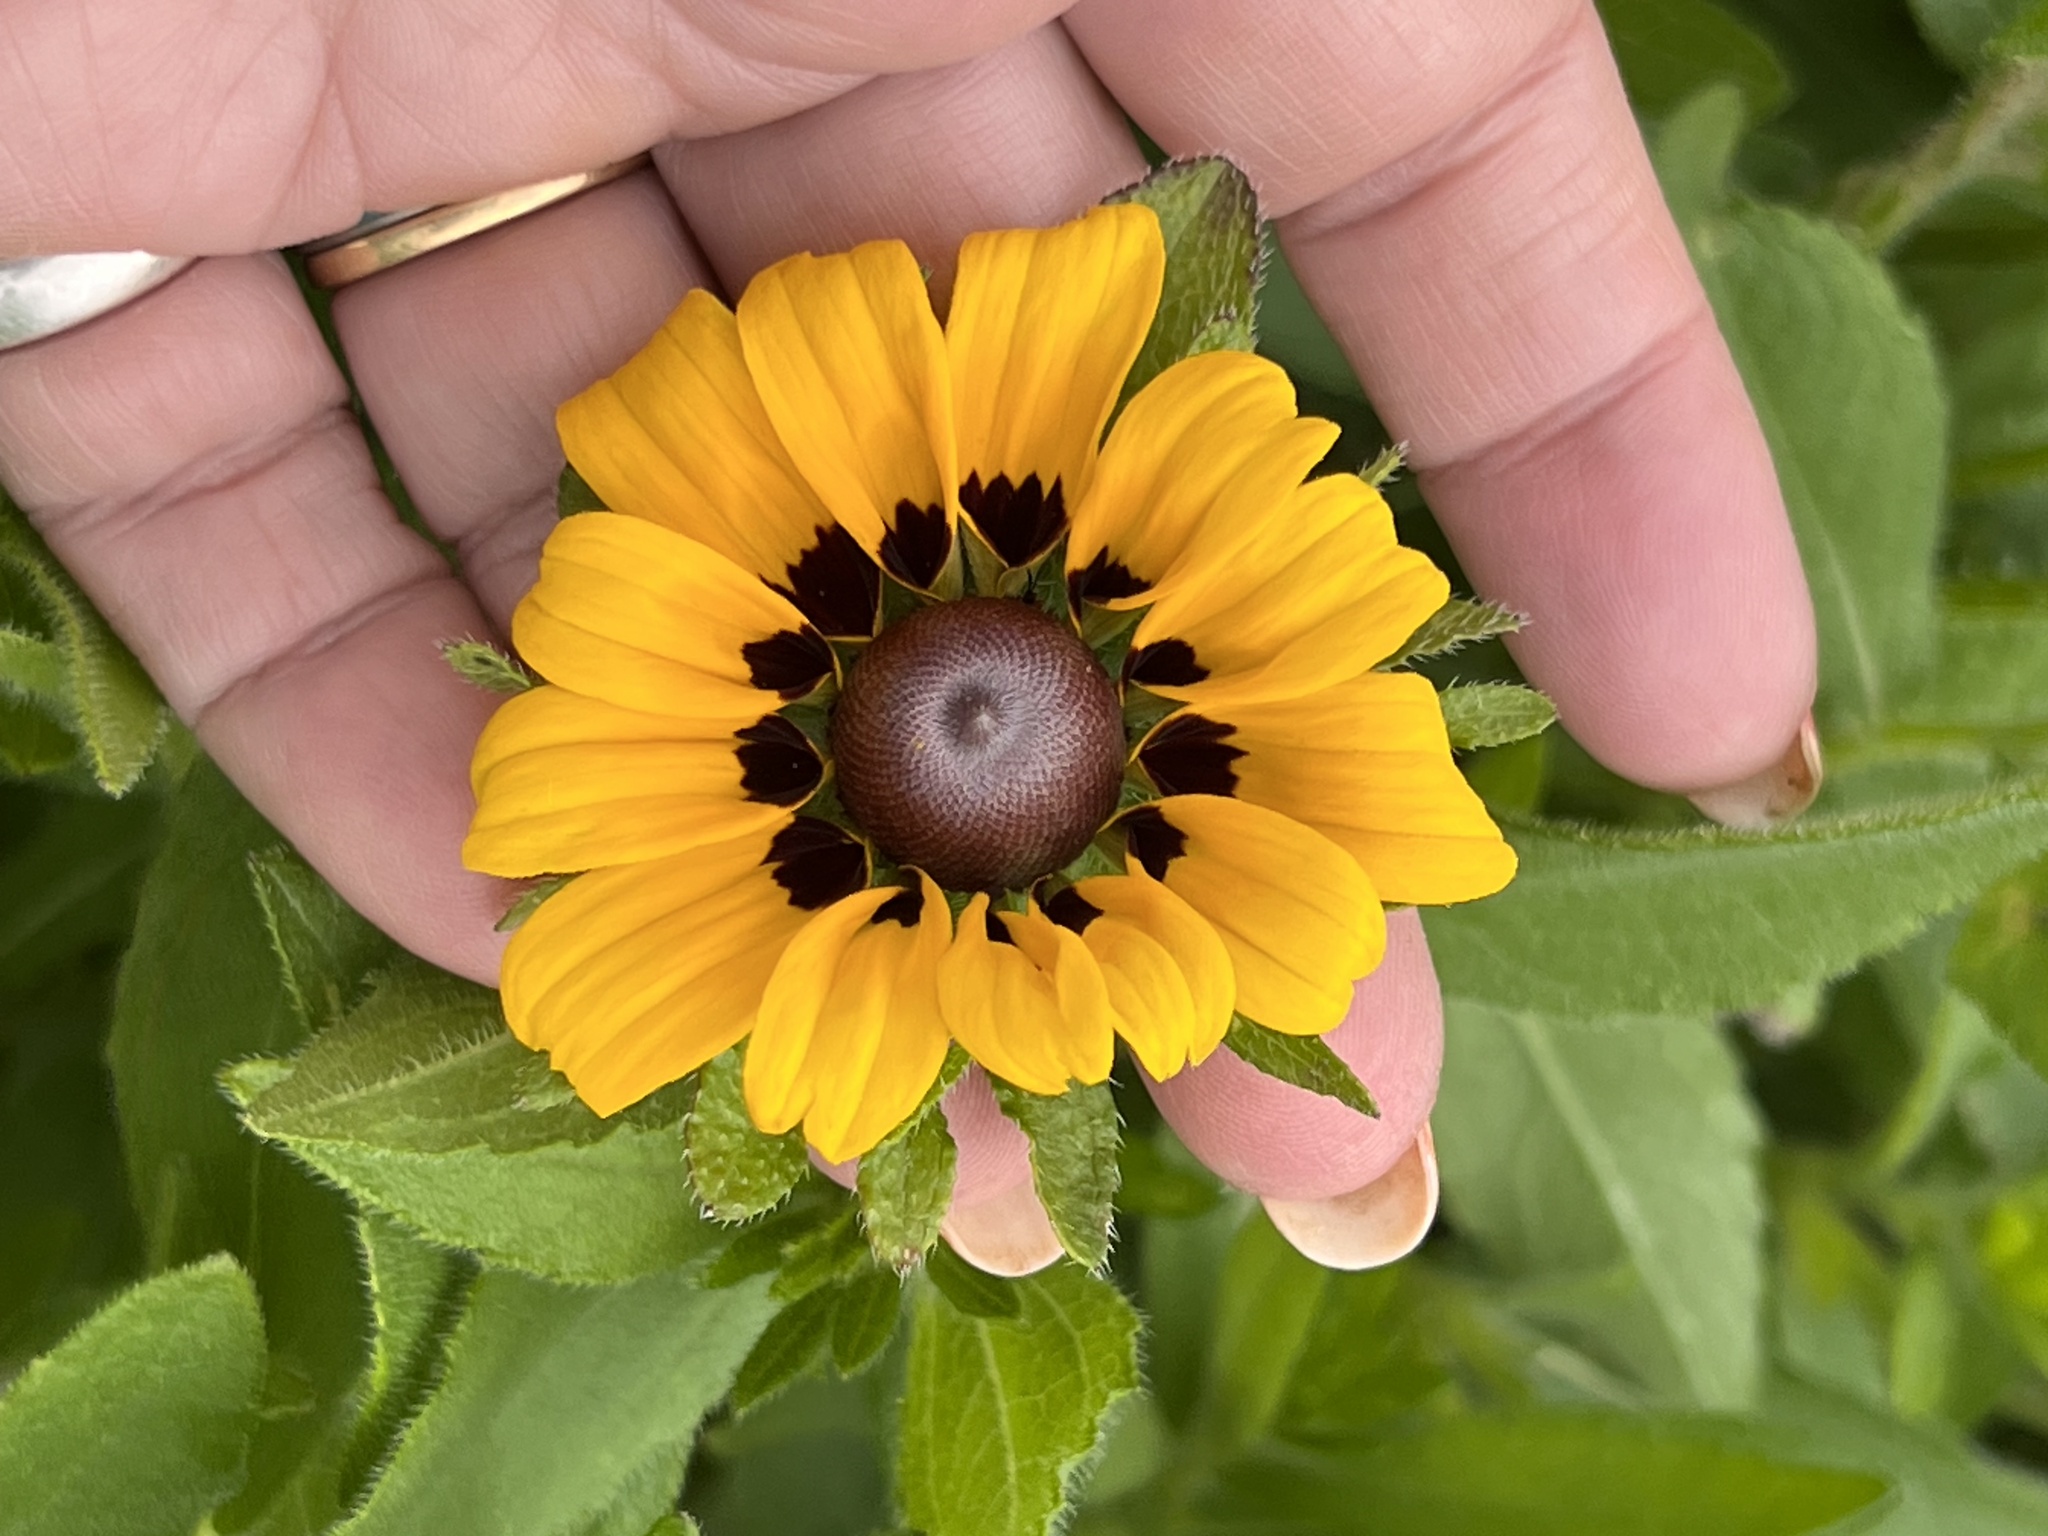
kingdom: Plantae
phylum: Tracheophyta
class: Magnoliopsida
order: Asterales
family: Asteraceae
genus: Rudbeckia
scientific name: Rudbeckia hirta
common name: Black-eyed-susan
